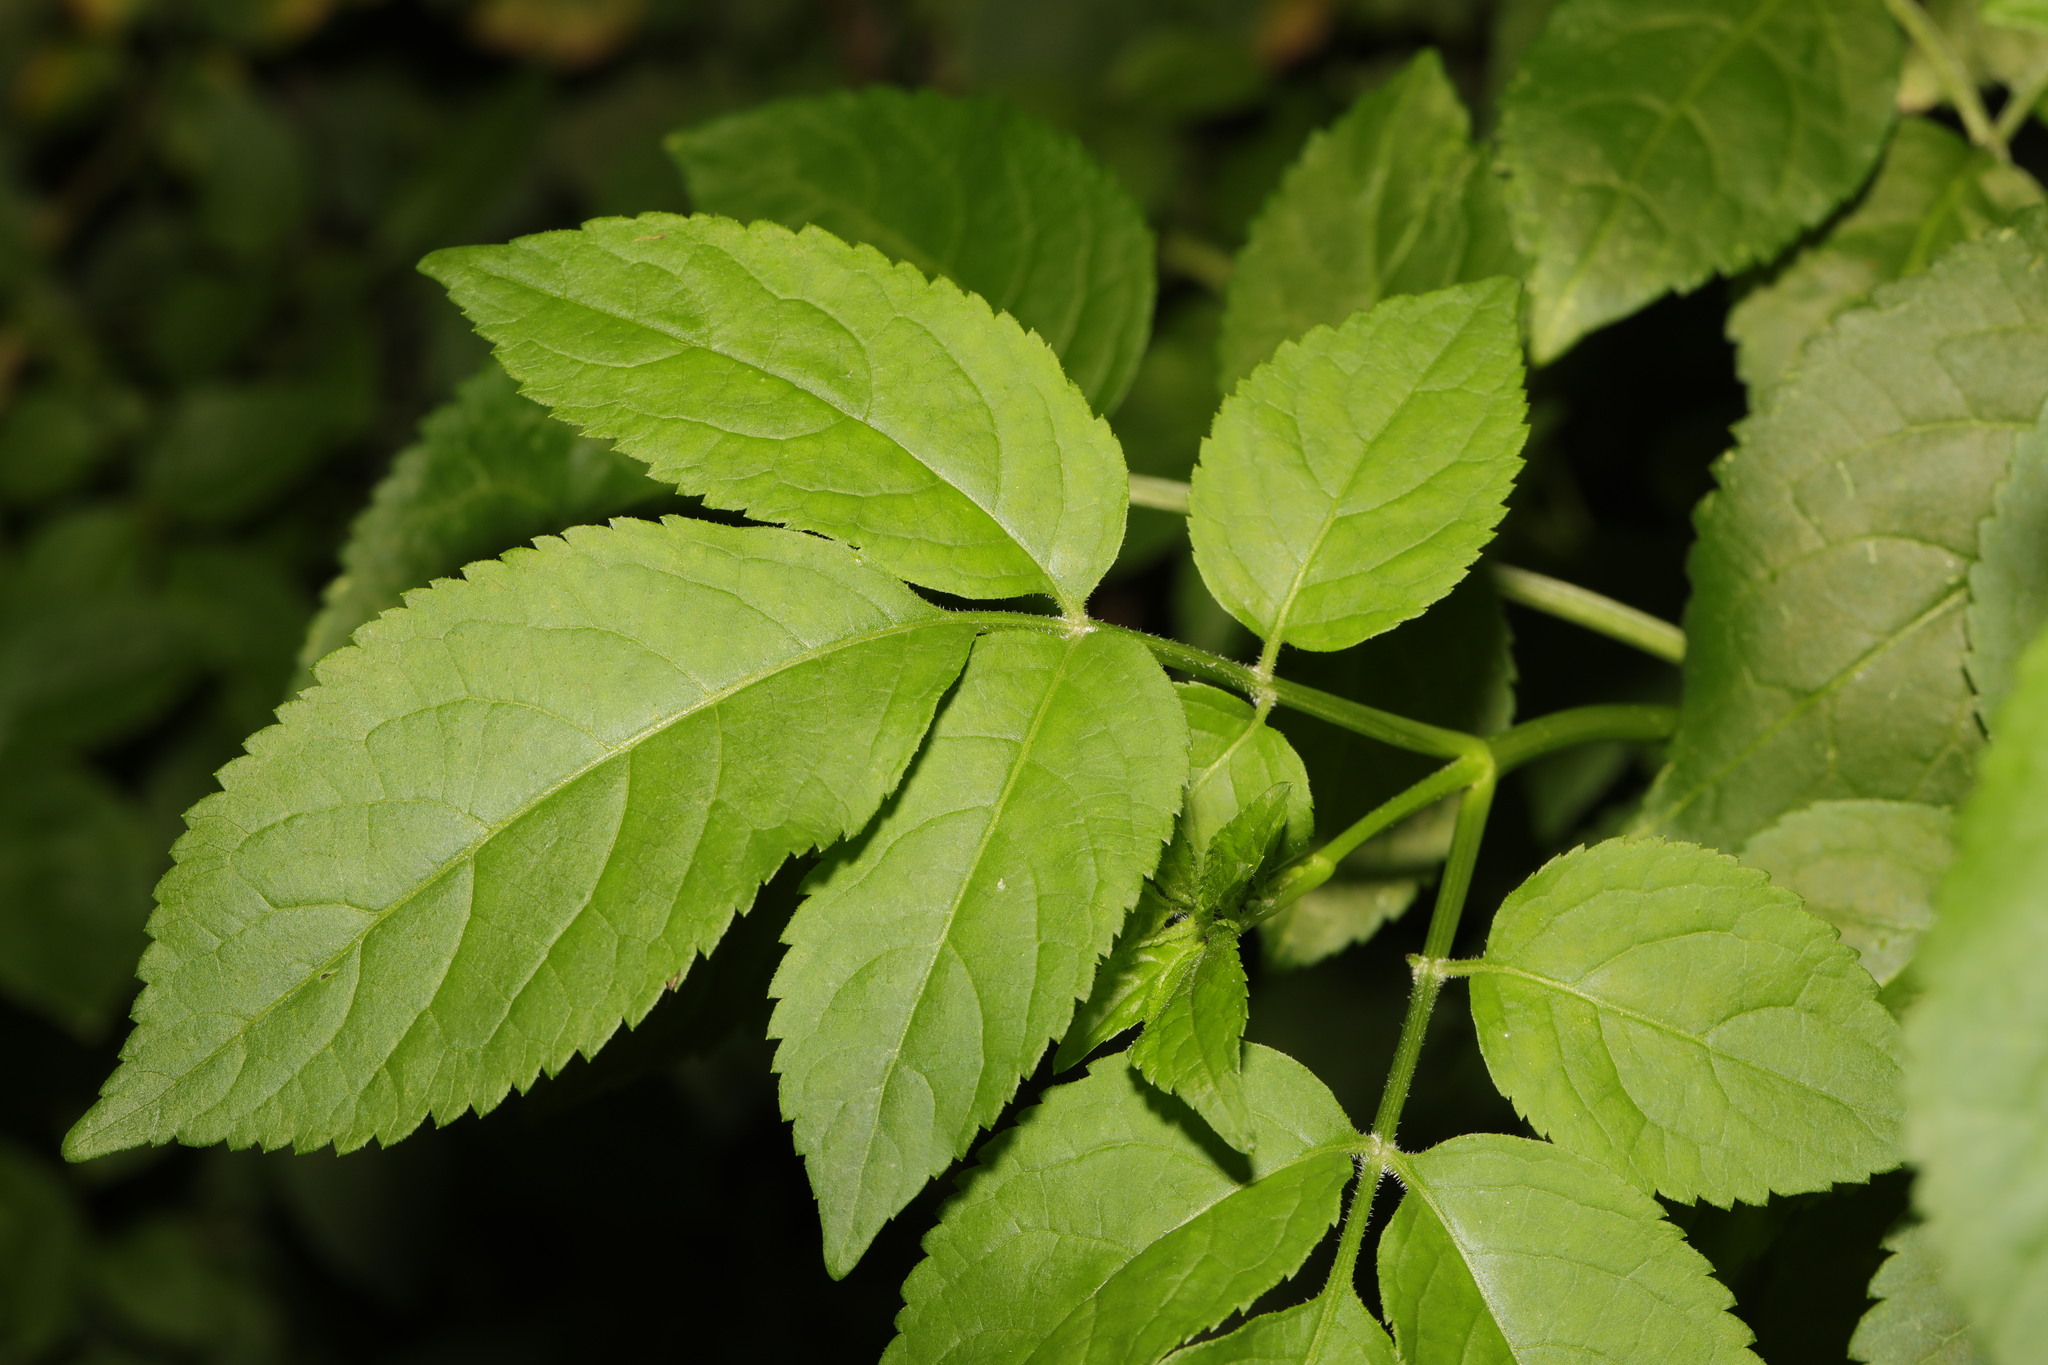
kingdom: Plantae
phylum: Tracheophyta
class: Magnoliopsida
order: Dipsacales
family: Viburnaceae
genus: Sambucus
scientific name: Sambucus nigra
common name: Elder
